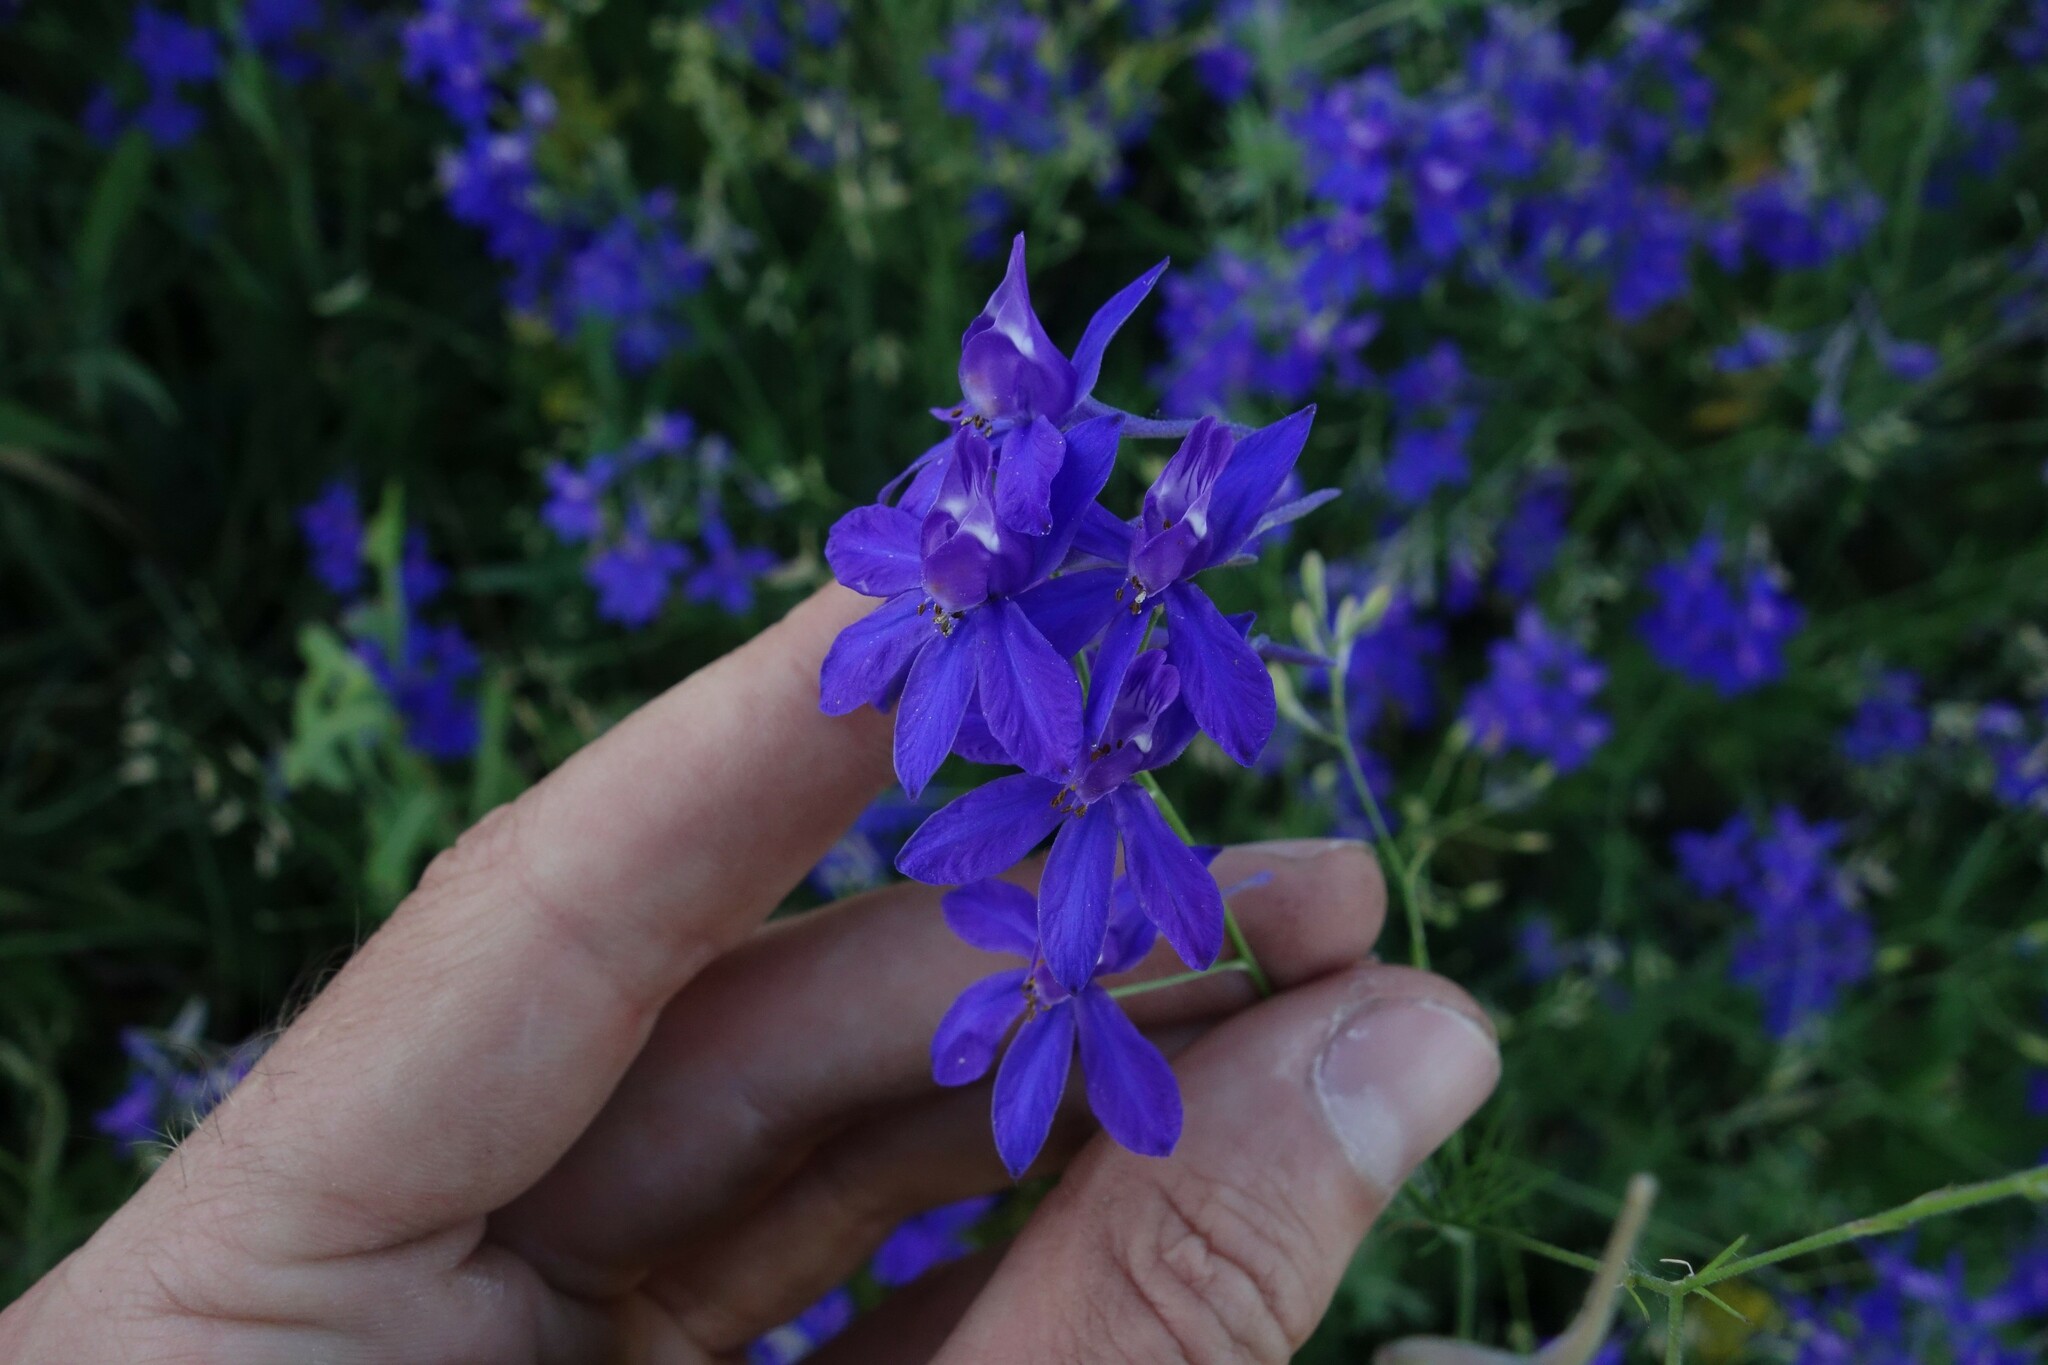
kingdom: Plantae
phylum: Tracheophyta
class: Magnoliopsida
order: Ranunculales
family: Ranunculaceae
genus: Delphinium
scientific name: Delphinium consolida
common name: Branching larkspur
